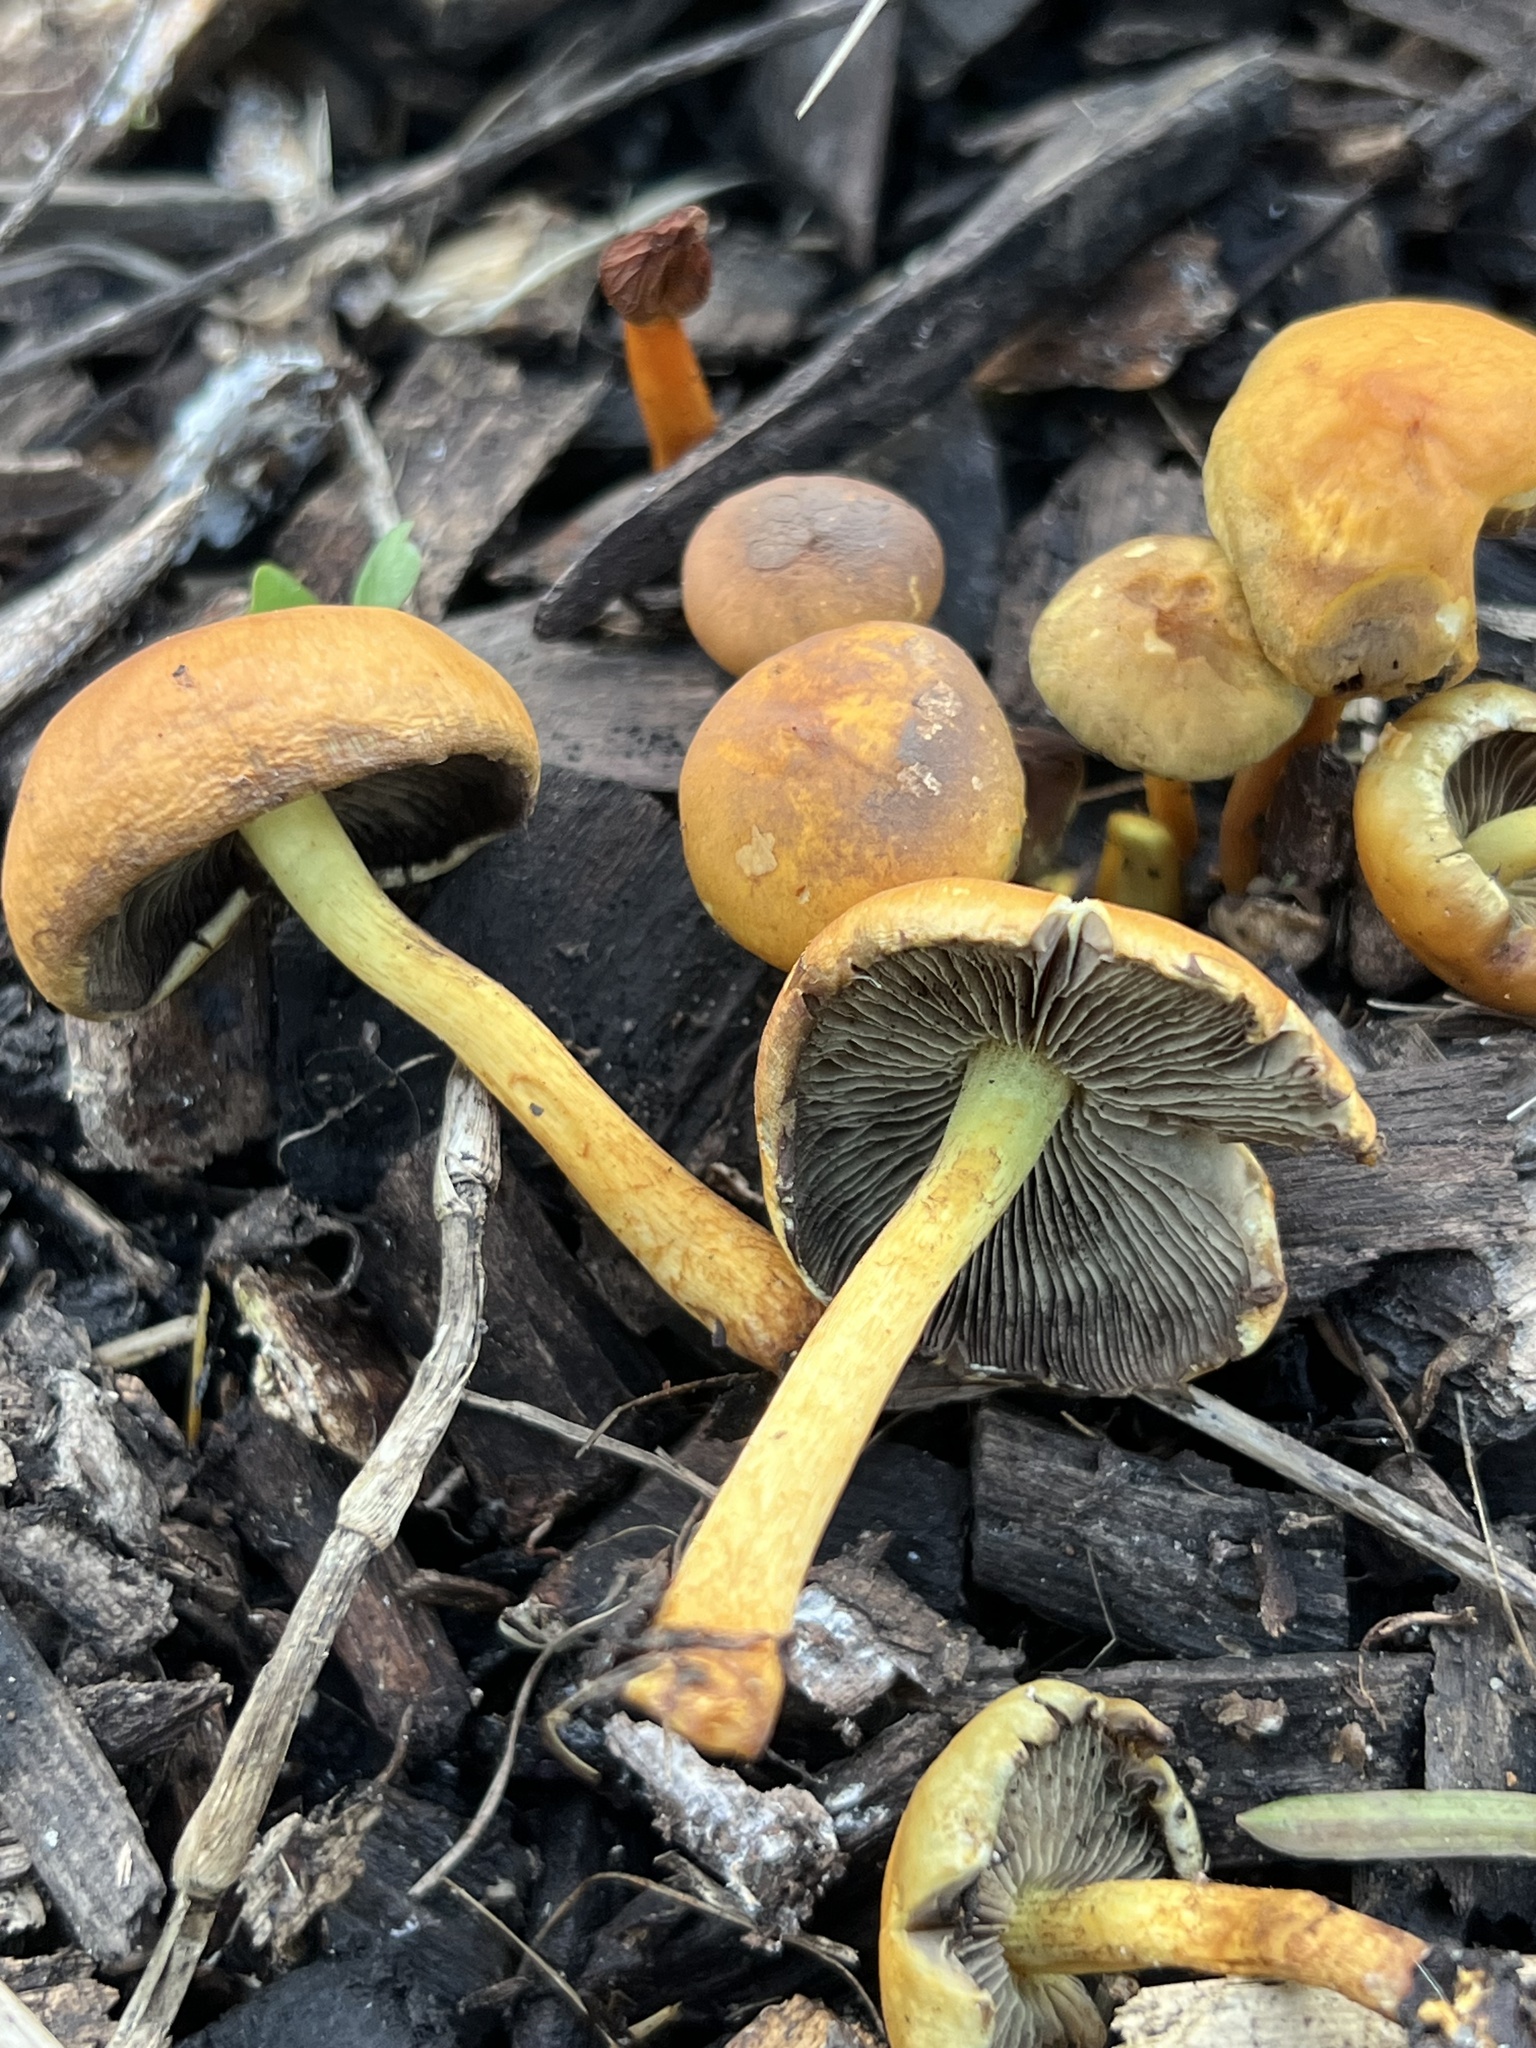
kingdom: Fungi
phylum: Basidiomycota
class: Agaricomycetes
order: Agaricales
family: Strophariaceae
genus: Hypholoma
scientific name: Hypholoma capnoides
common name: Conifer tuft
